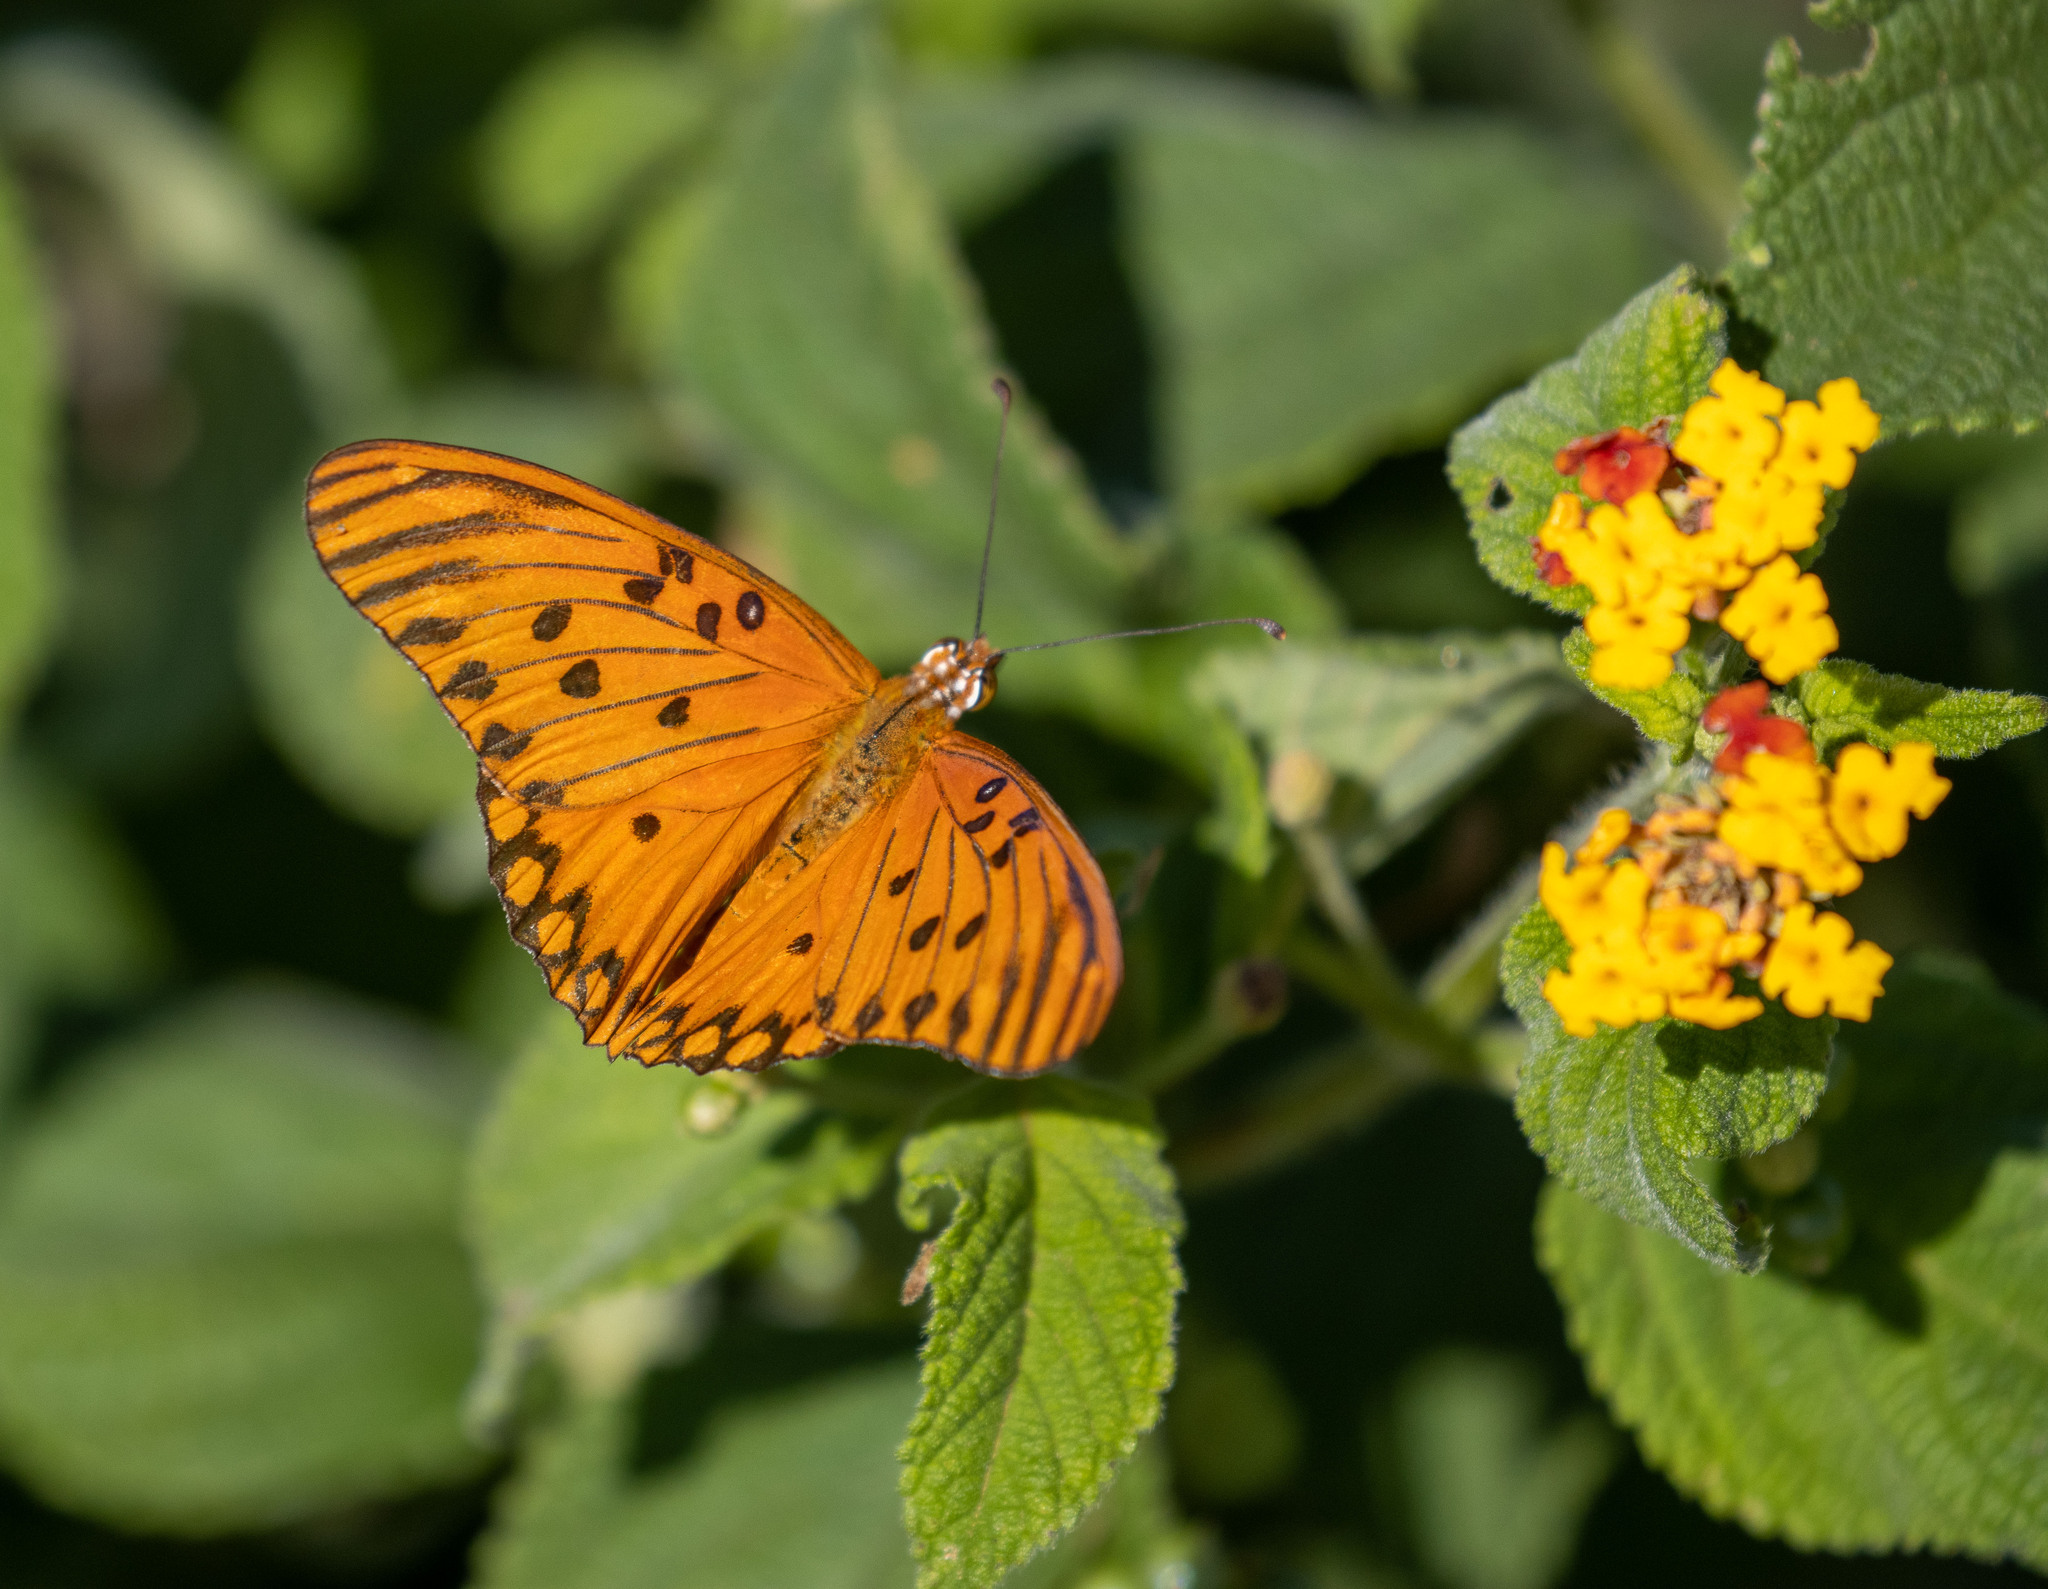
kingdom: Animalia
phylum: Arthropoda
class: Insecta
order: Lepidoptera
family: Nymphalidae
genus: Dione
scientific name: Dione vanillae
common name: Gulf fritillary
